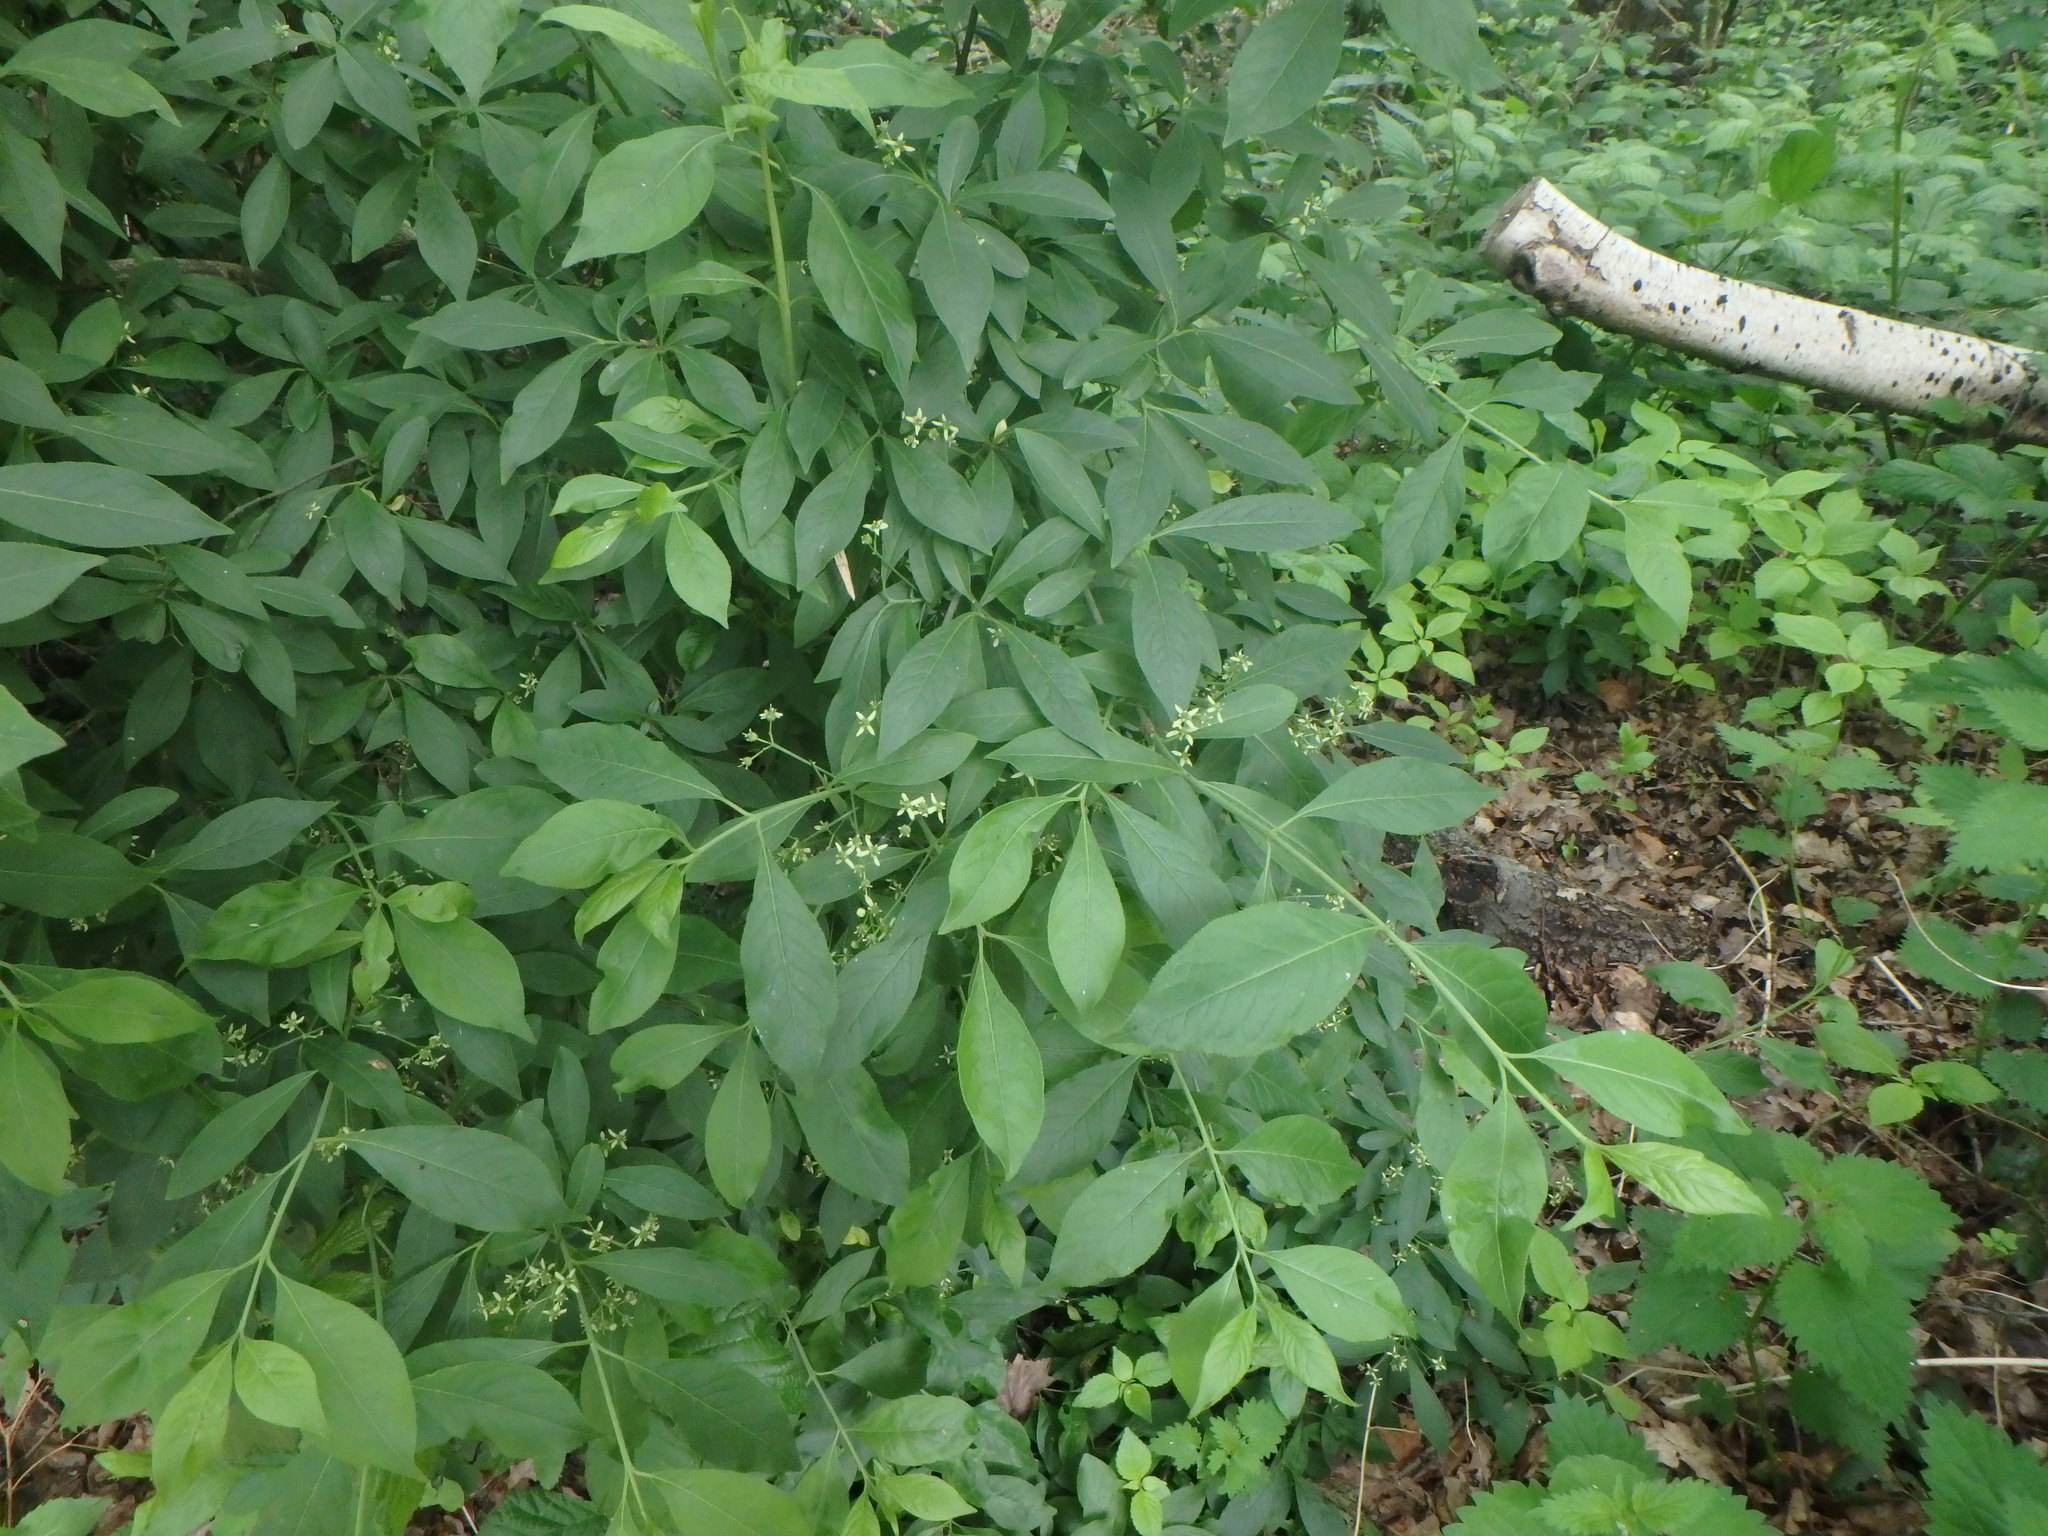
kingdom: Plantae
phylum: Tracheophyta
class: Magnoliopsida
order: Celastrales
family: Celastraceae
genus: Euonymus
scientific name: Euonymus europaeus
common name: Spindle
